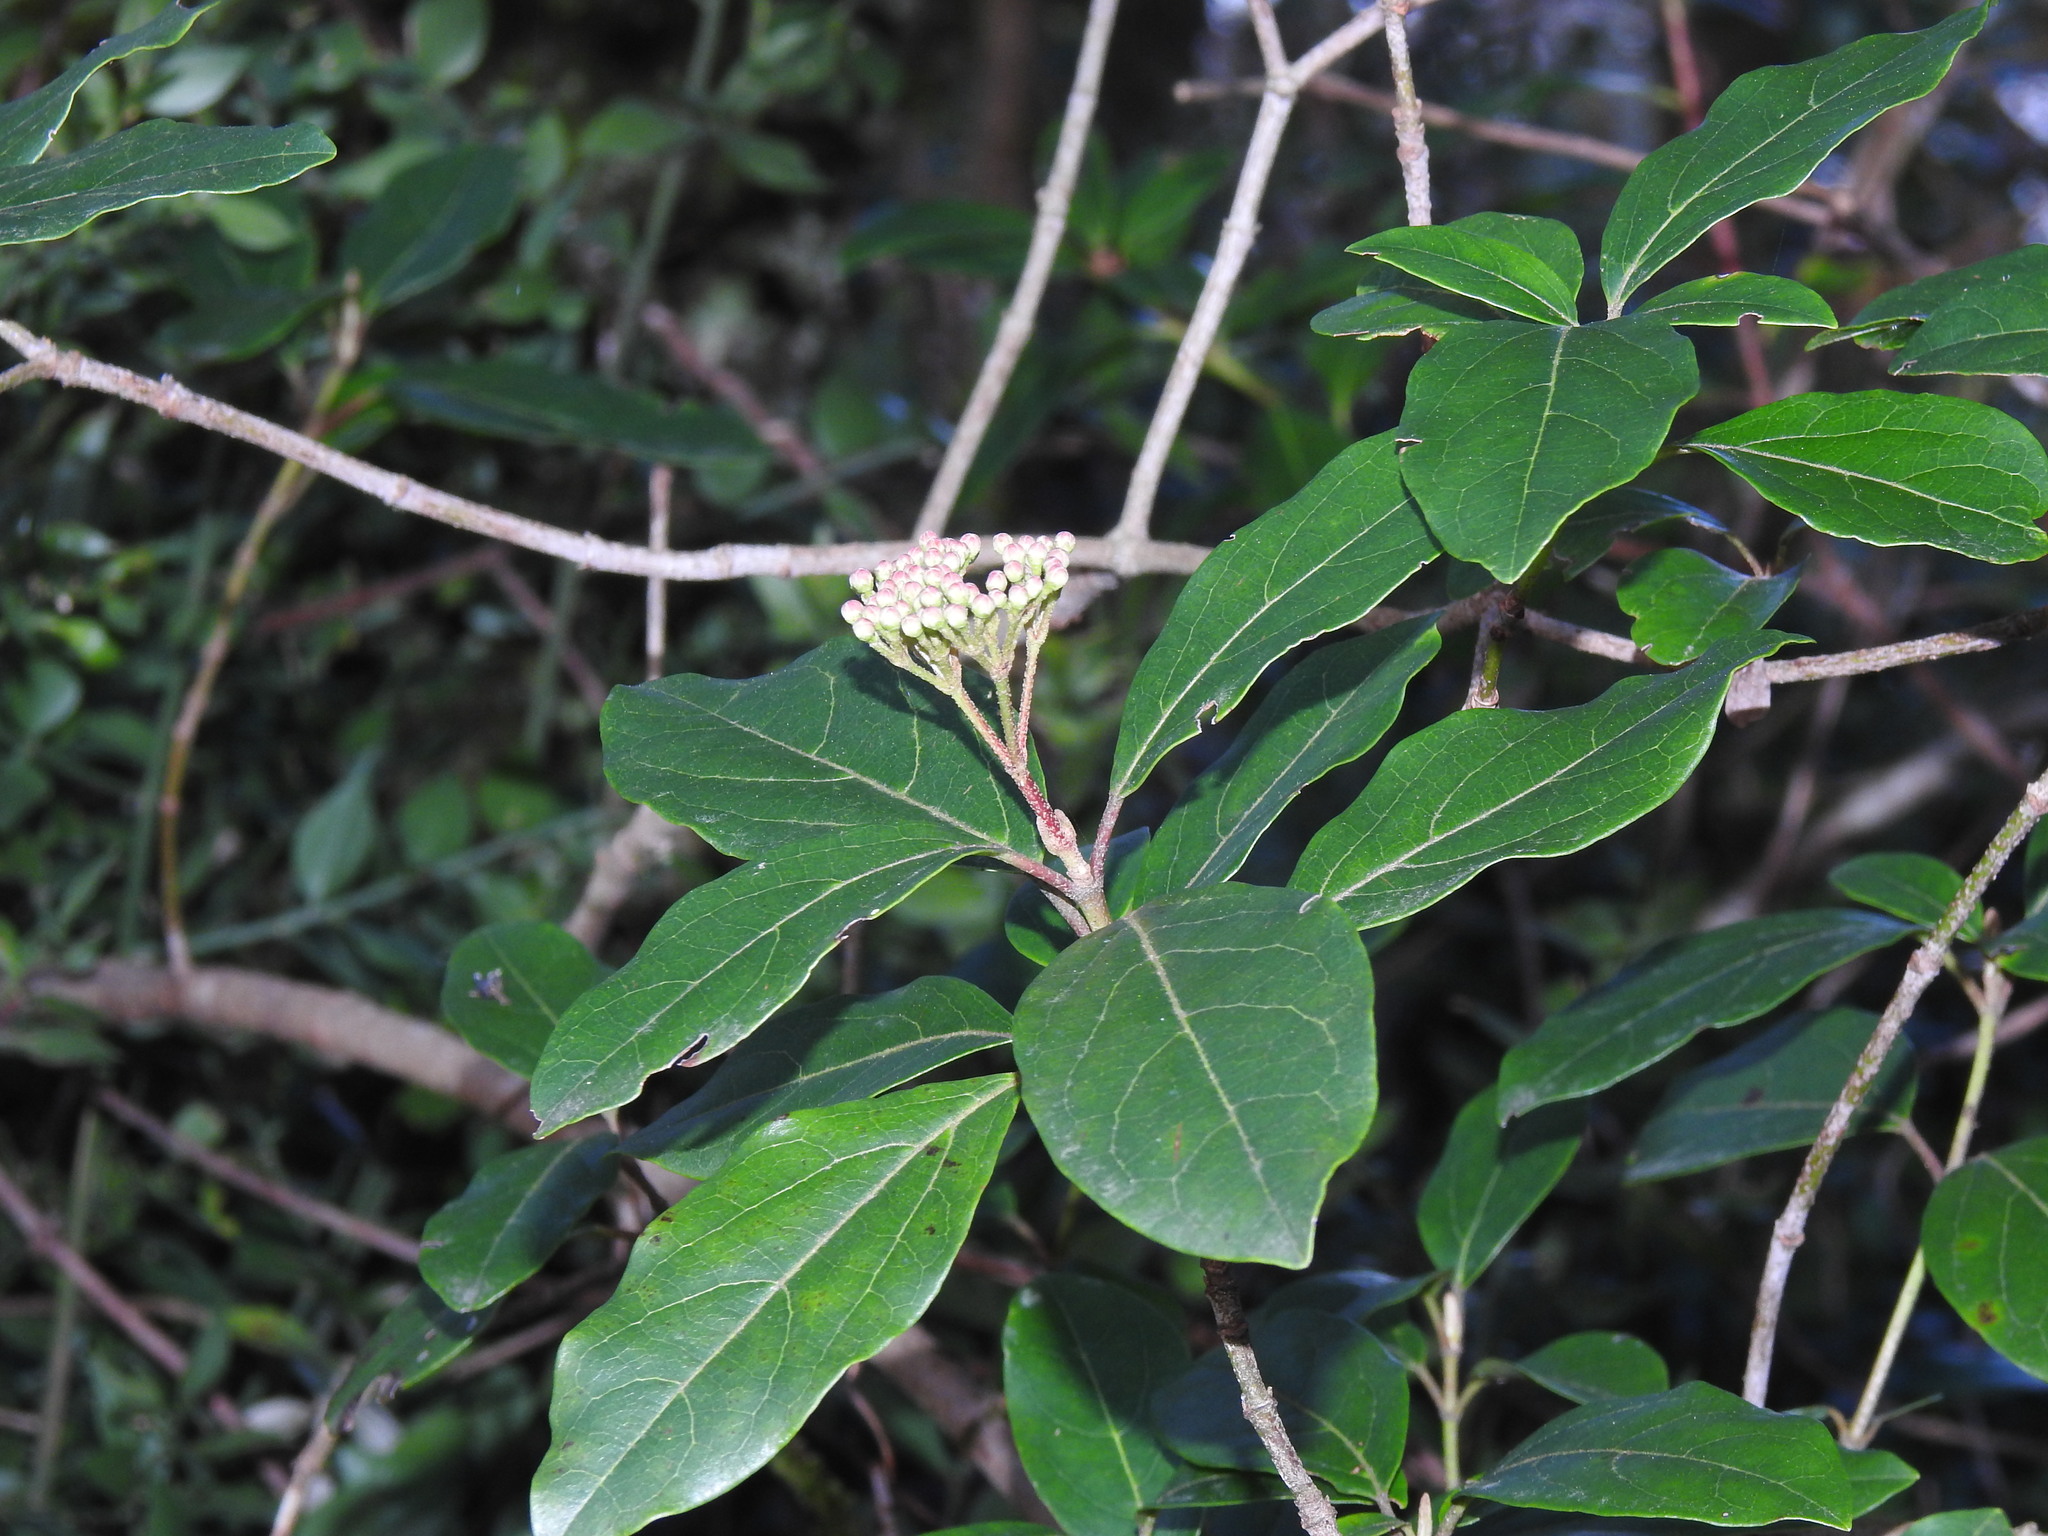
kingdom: Plantae
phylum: Tracheophyta
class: Magnoliopsida
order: Dipsacales
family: Viburnaceae
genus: Viburnum
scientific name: Viburnum tinus
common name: Laurustinus
